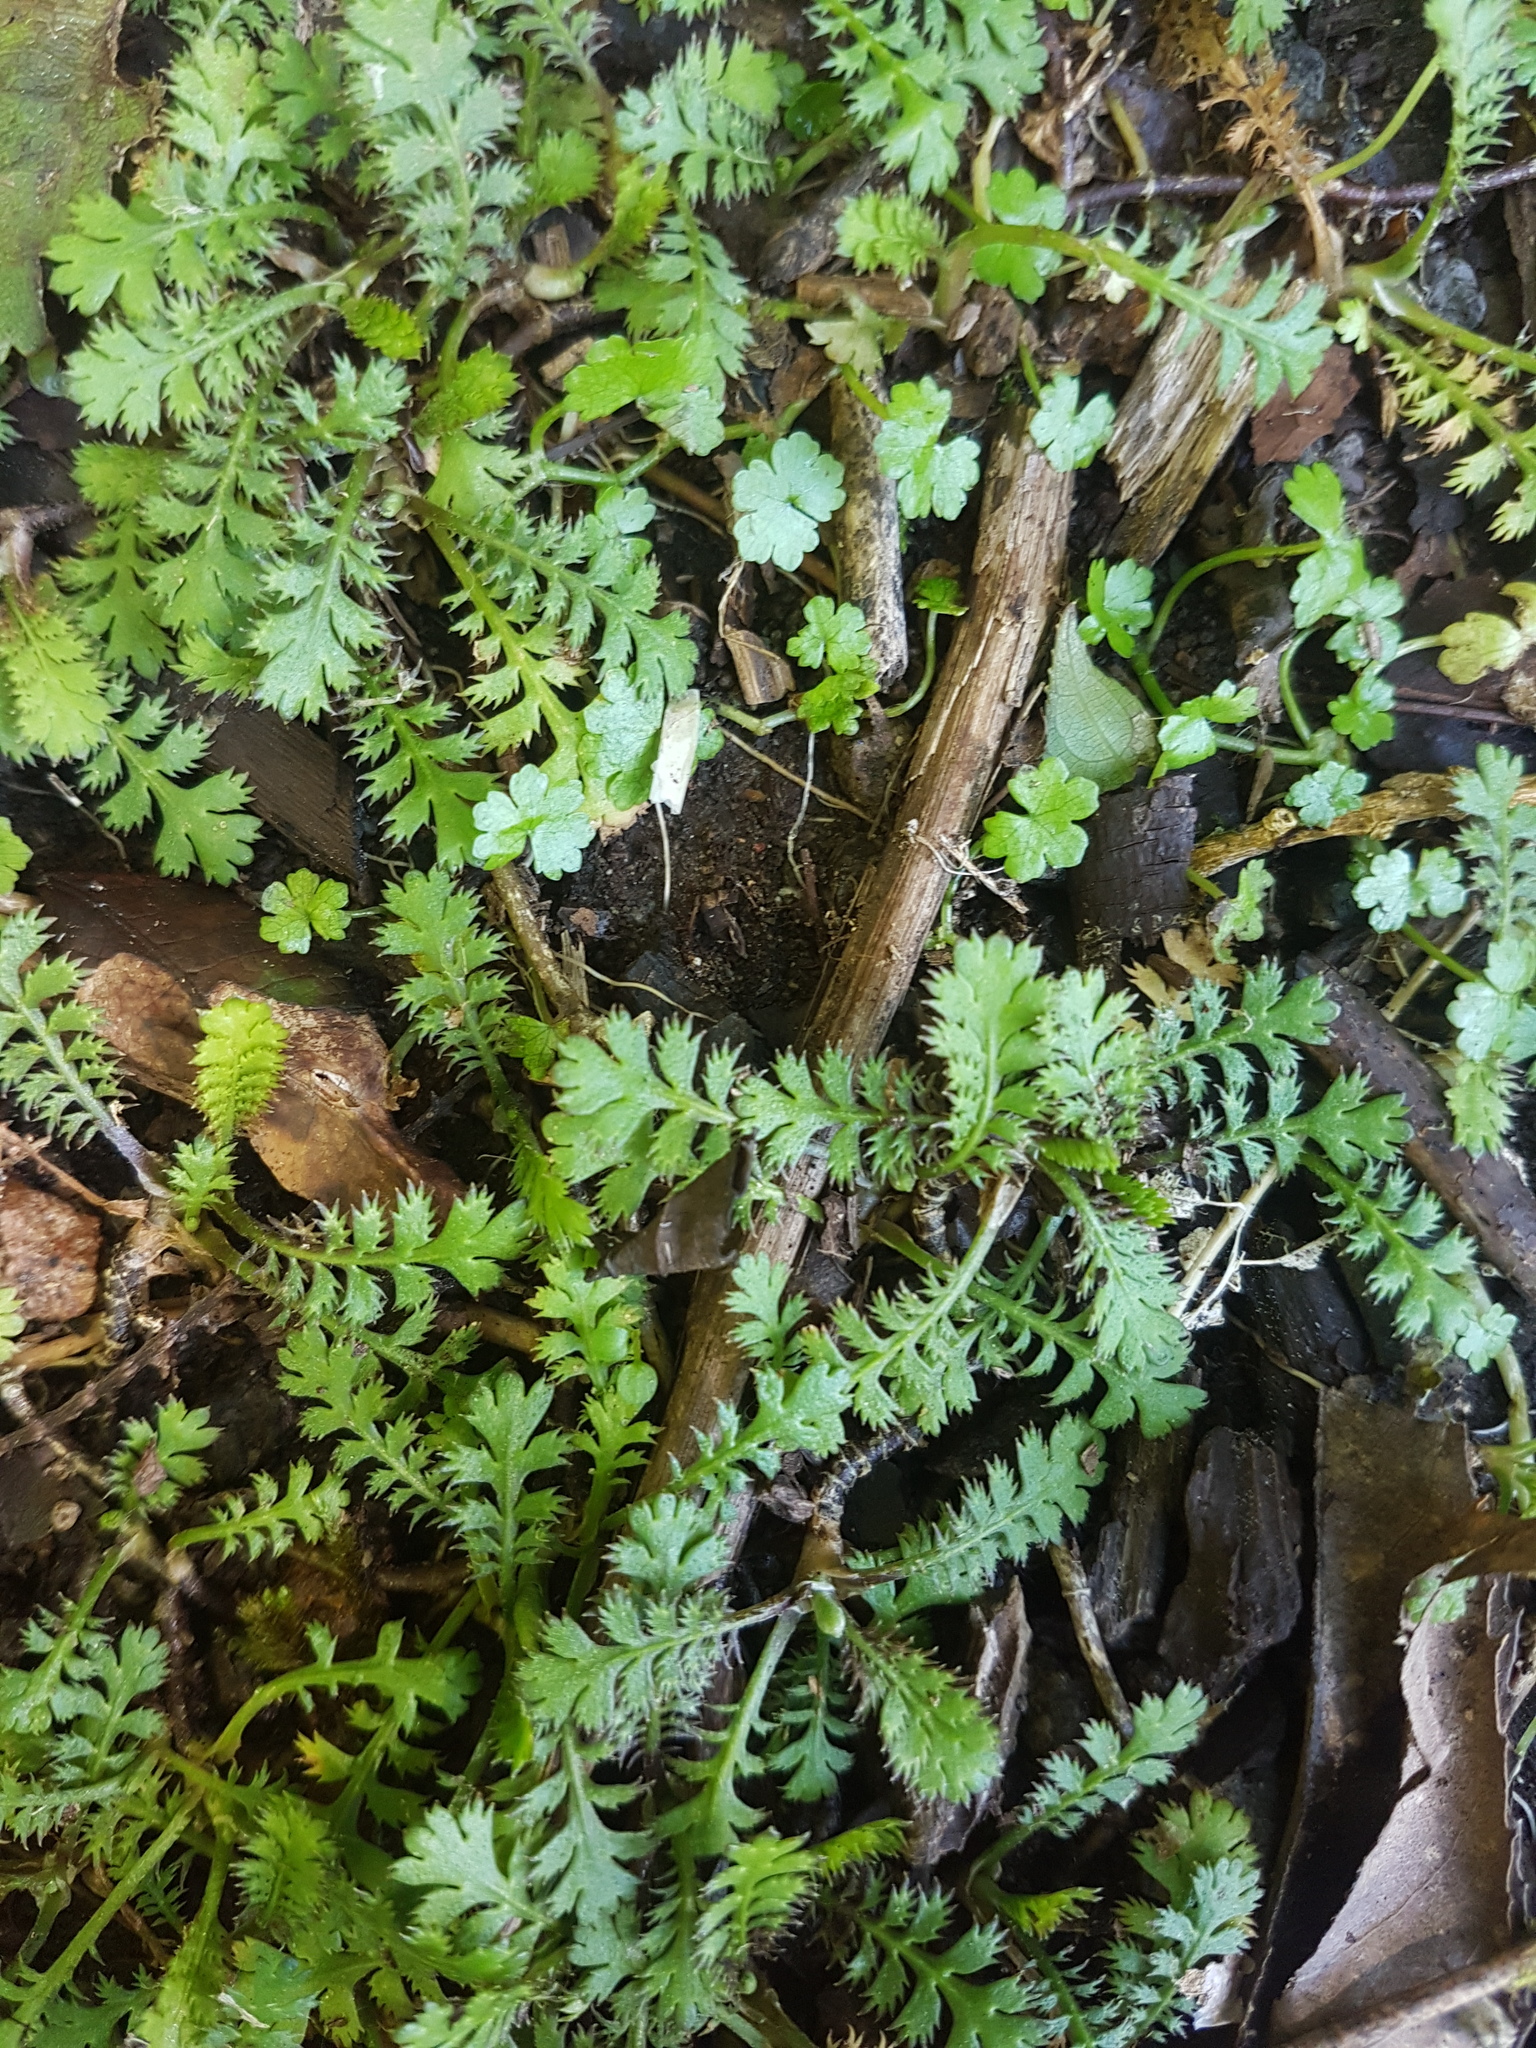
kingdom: Plantae
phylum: Tracheophyta
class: Magnoliopsida
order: Asterales
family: Asteraceae
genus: Leptinella
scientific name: Leptinella squalida
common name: New zealand brass-buttons
